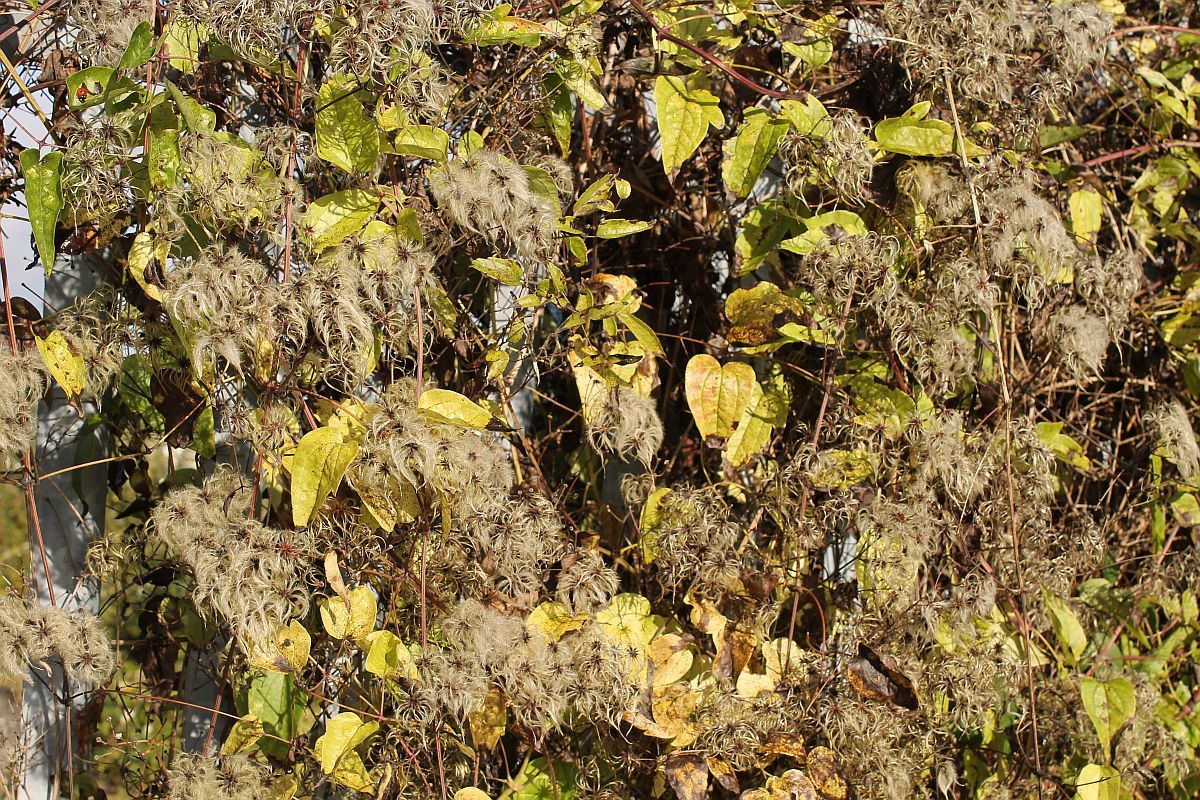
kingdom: Plantae
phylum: Tracheophyta
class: Magnoliopsida
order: Ranunculales
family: Ranunculaceae
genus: Clematis
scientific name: Clematis vitalba
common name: Evergreen clematis
